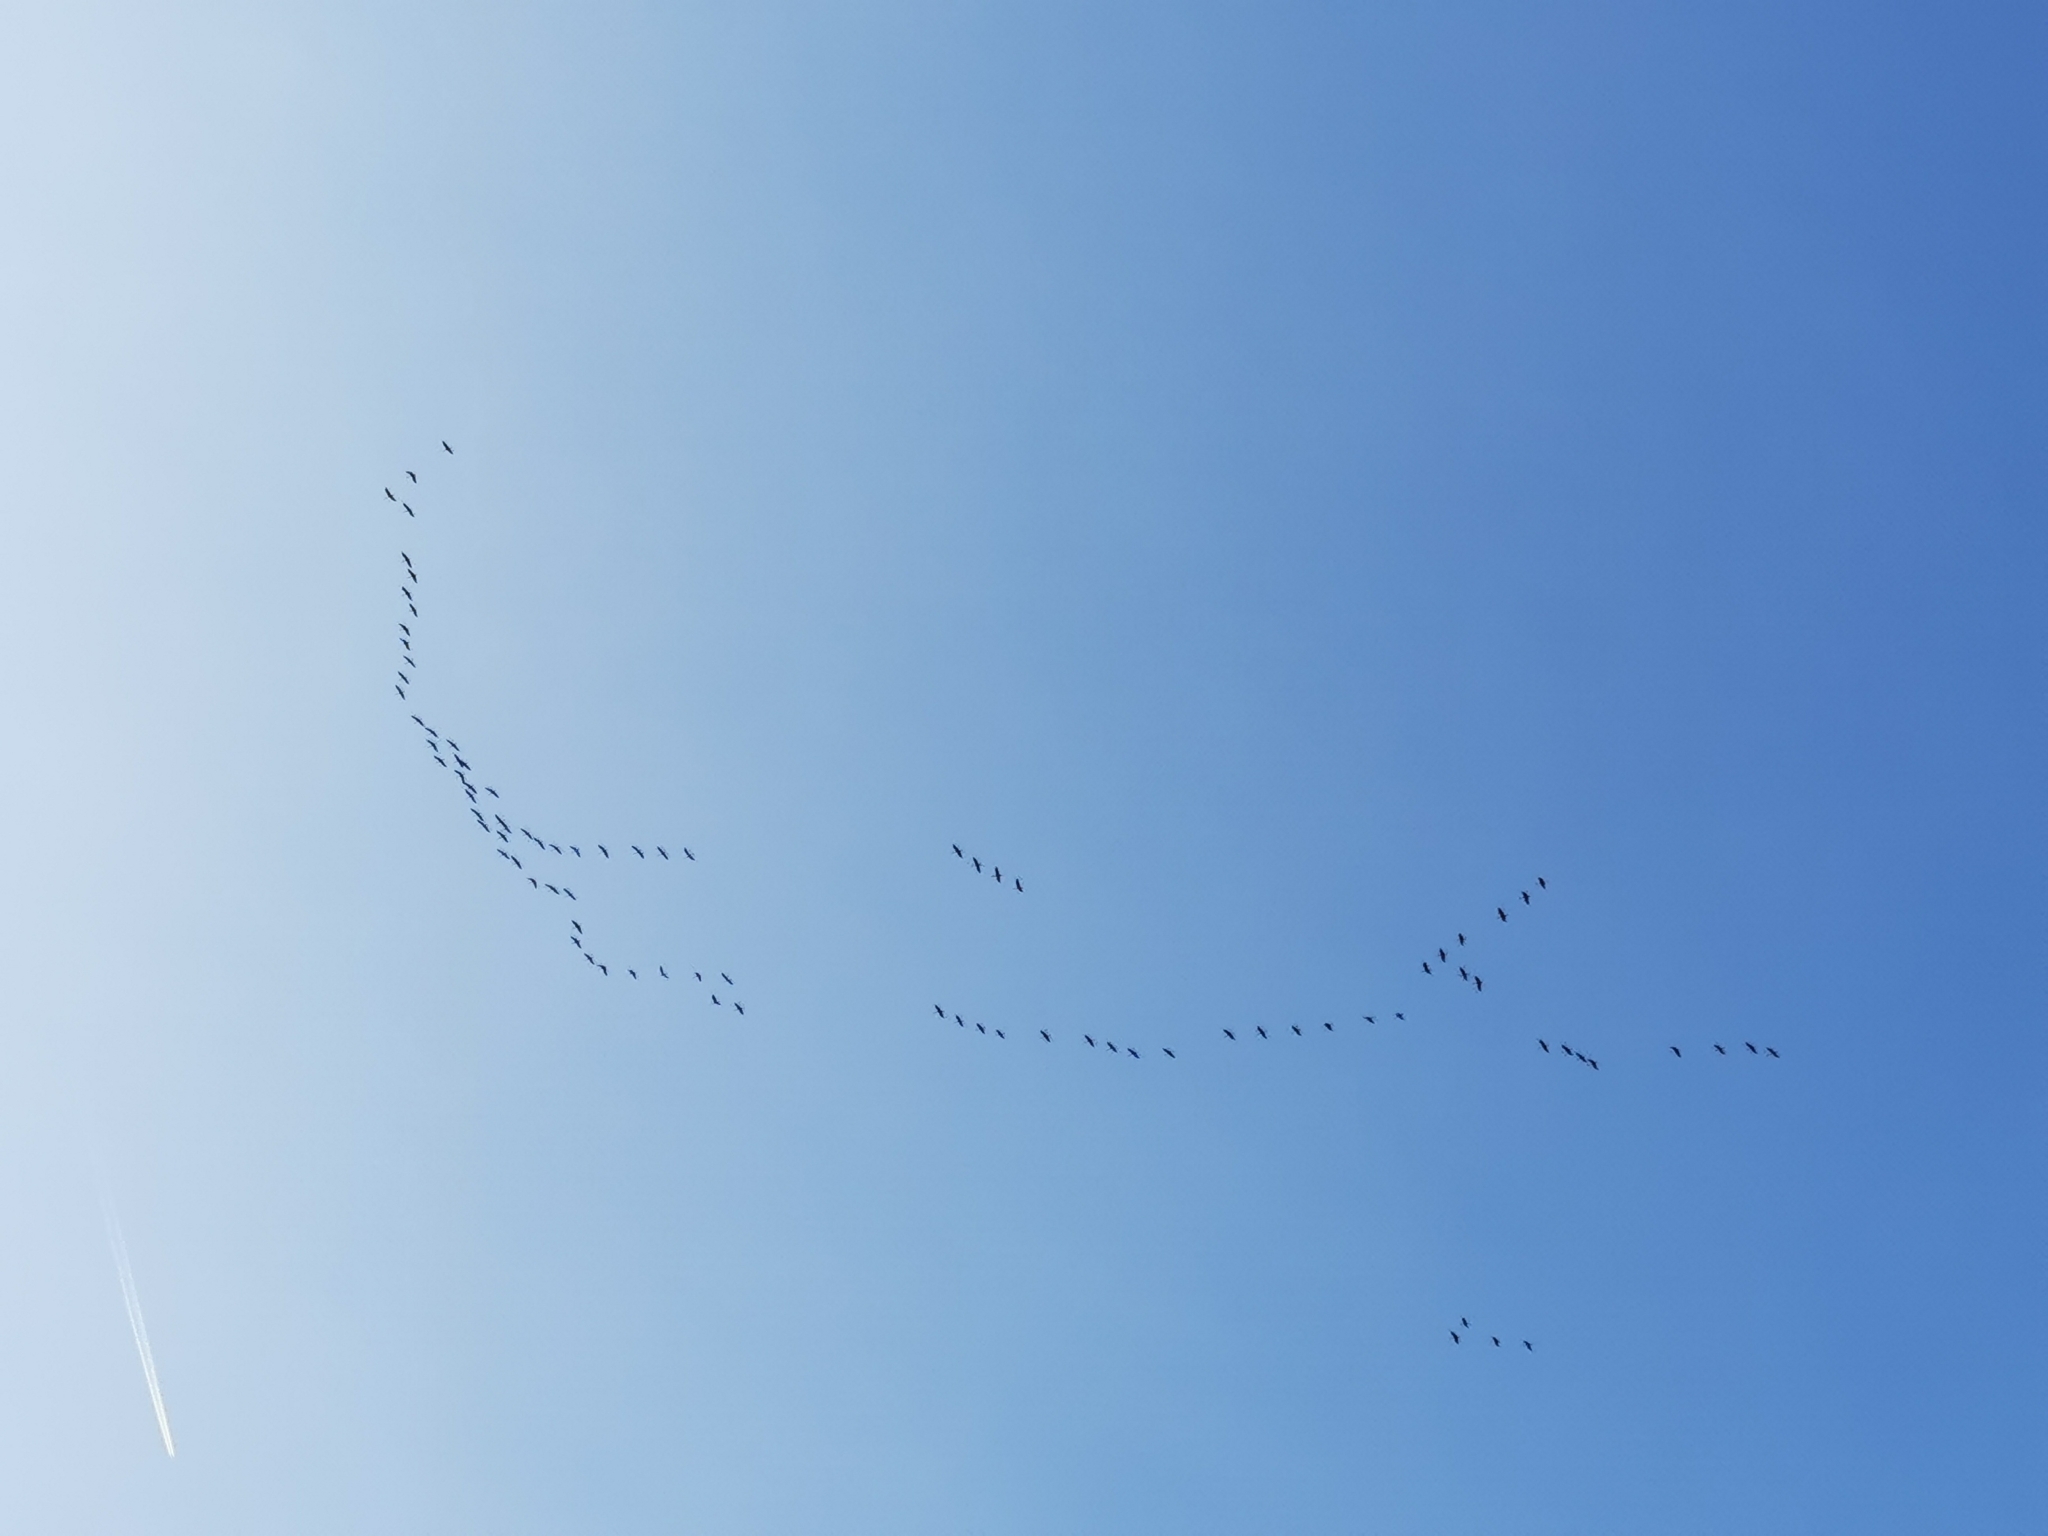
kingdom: Animalia
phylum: Chordata
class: Aves
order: Gruiformes
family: Gruidae
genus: Grus
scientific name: Grus grus
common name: Common crane
